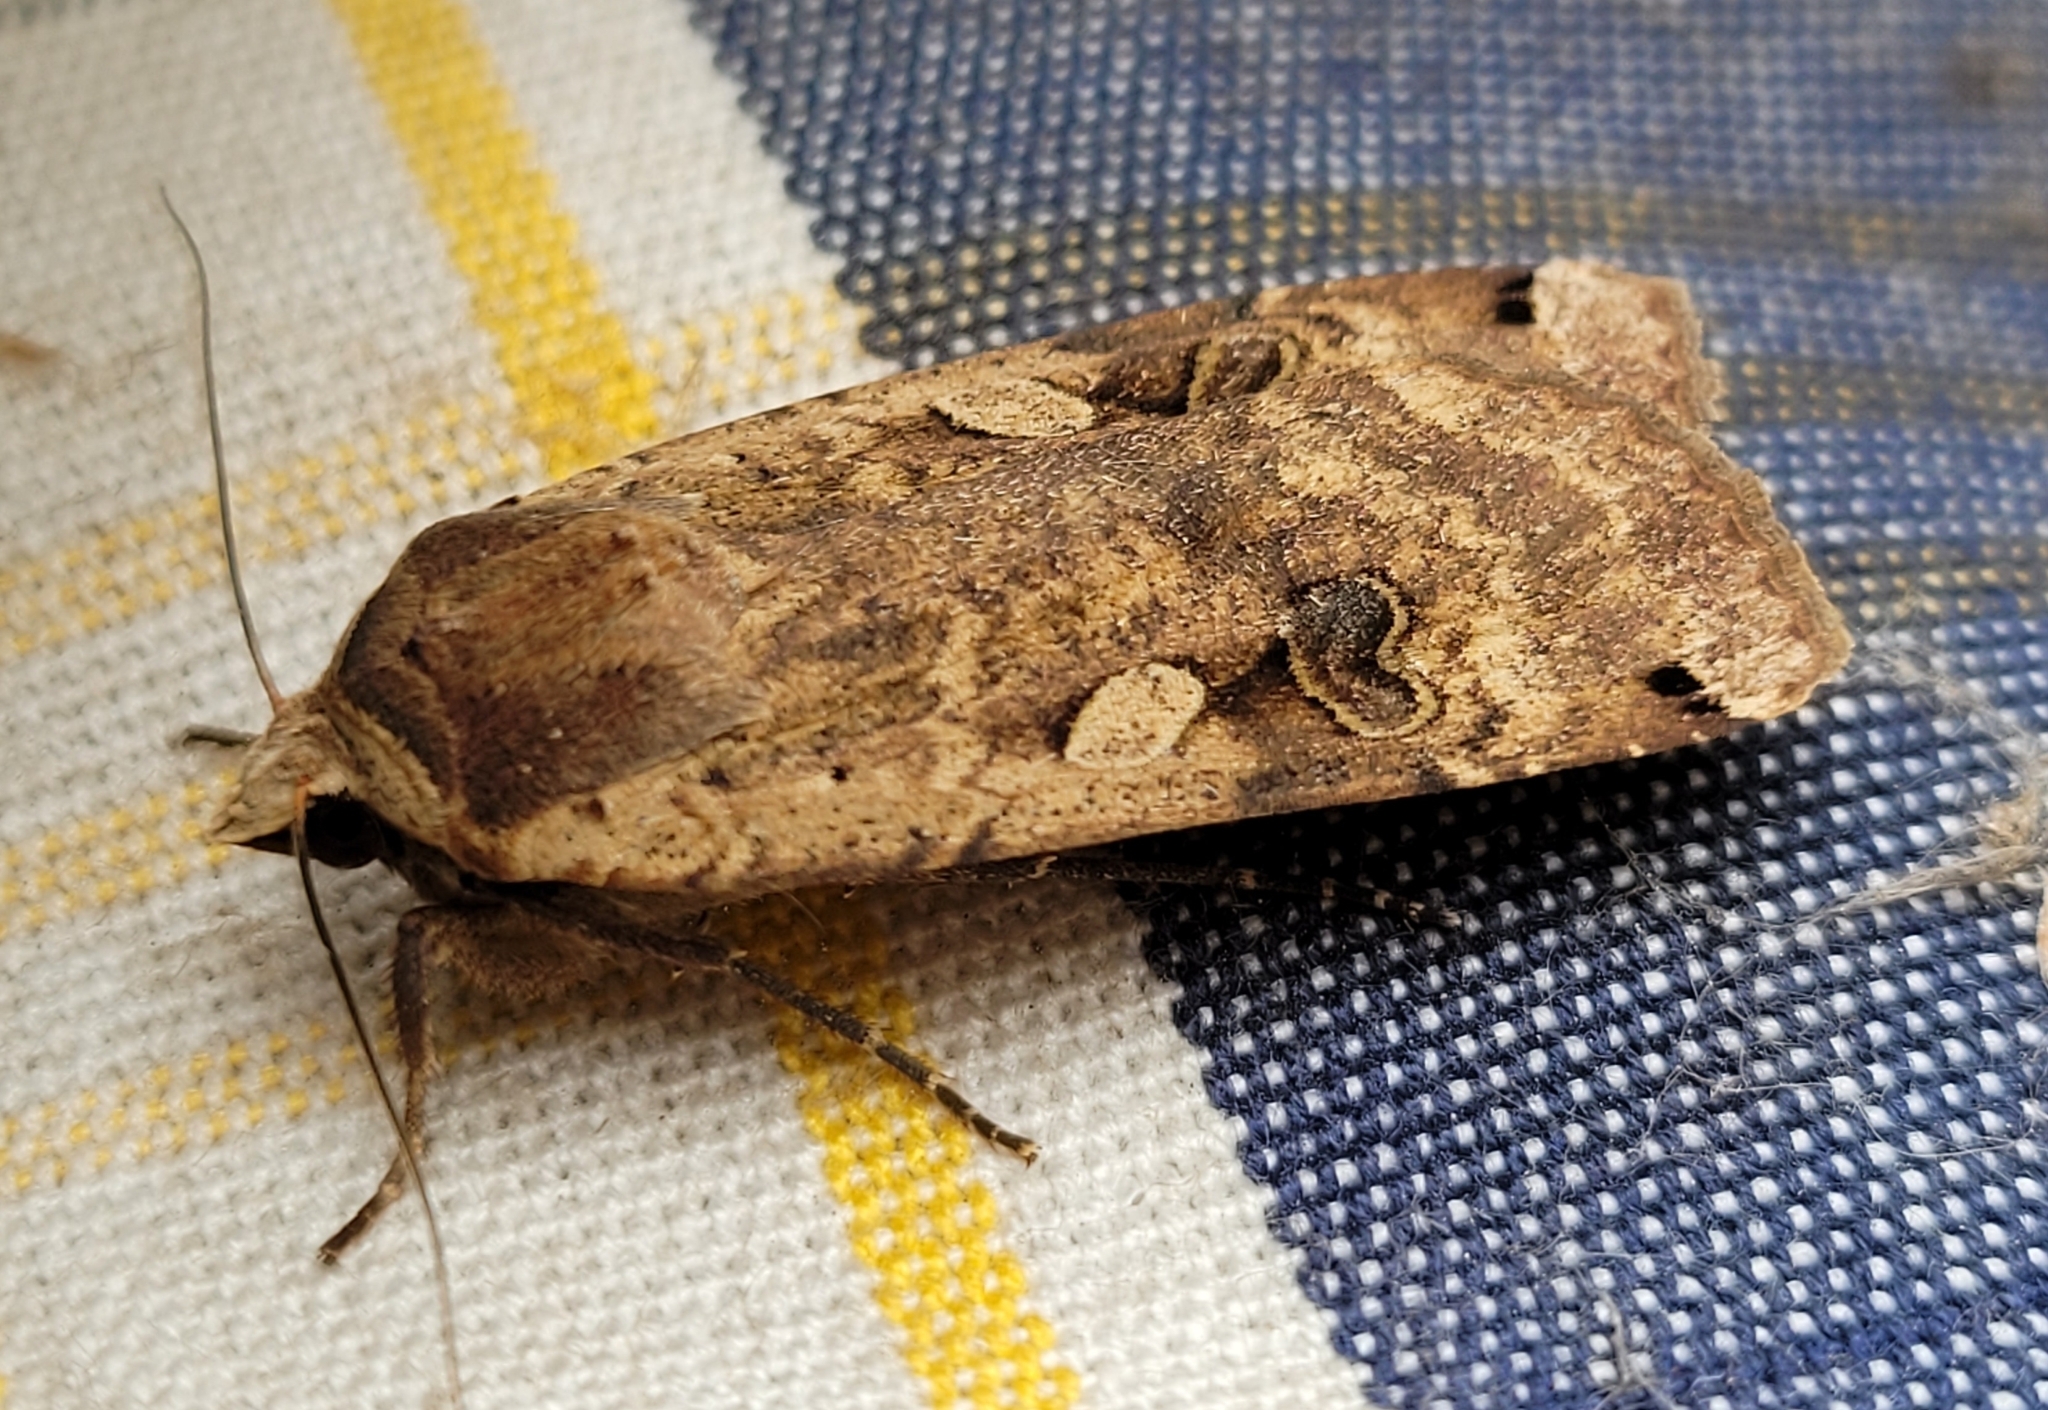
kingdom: Animalia
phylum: Arthropoda
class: Insecta
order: Lepidoptera
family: Noctuidae
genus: Noctua
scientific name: Noctua pronuba
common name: Large yellow underwing
